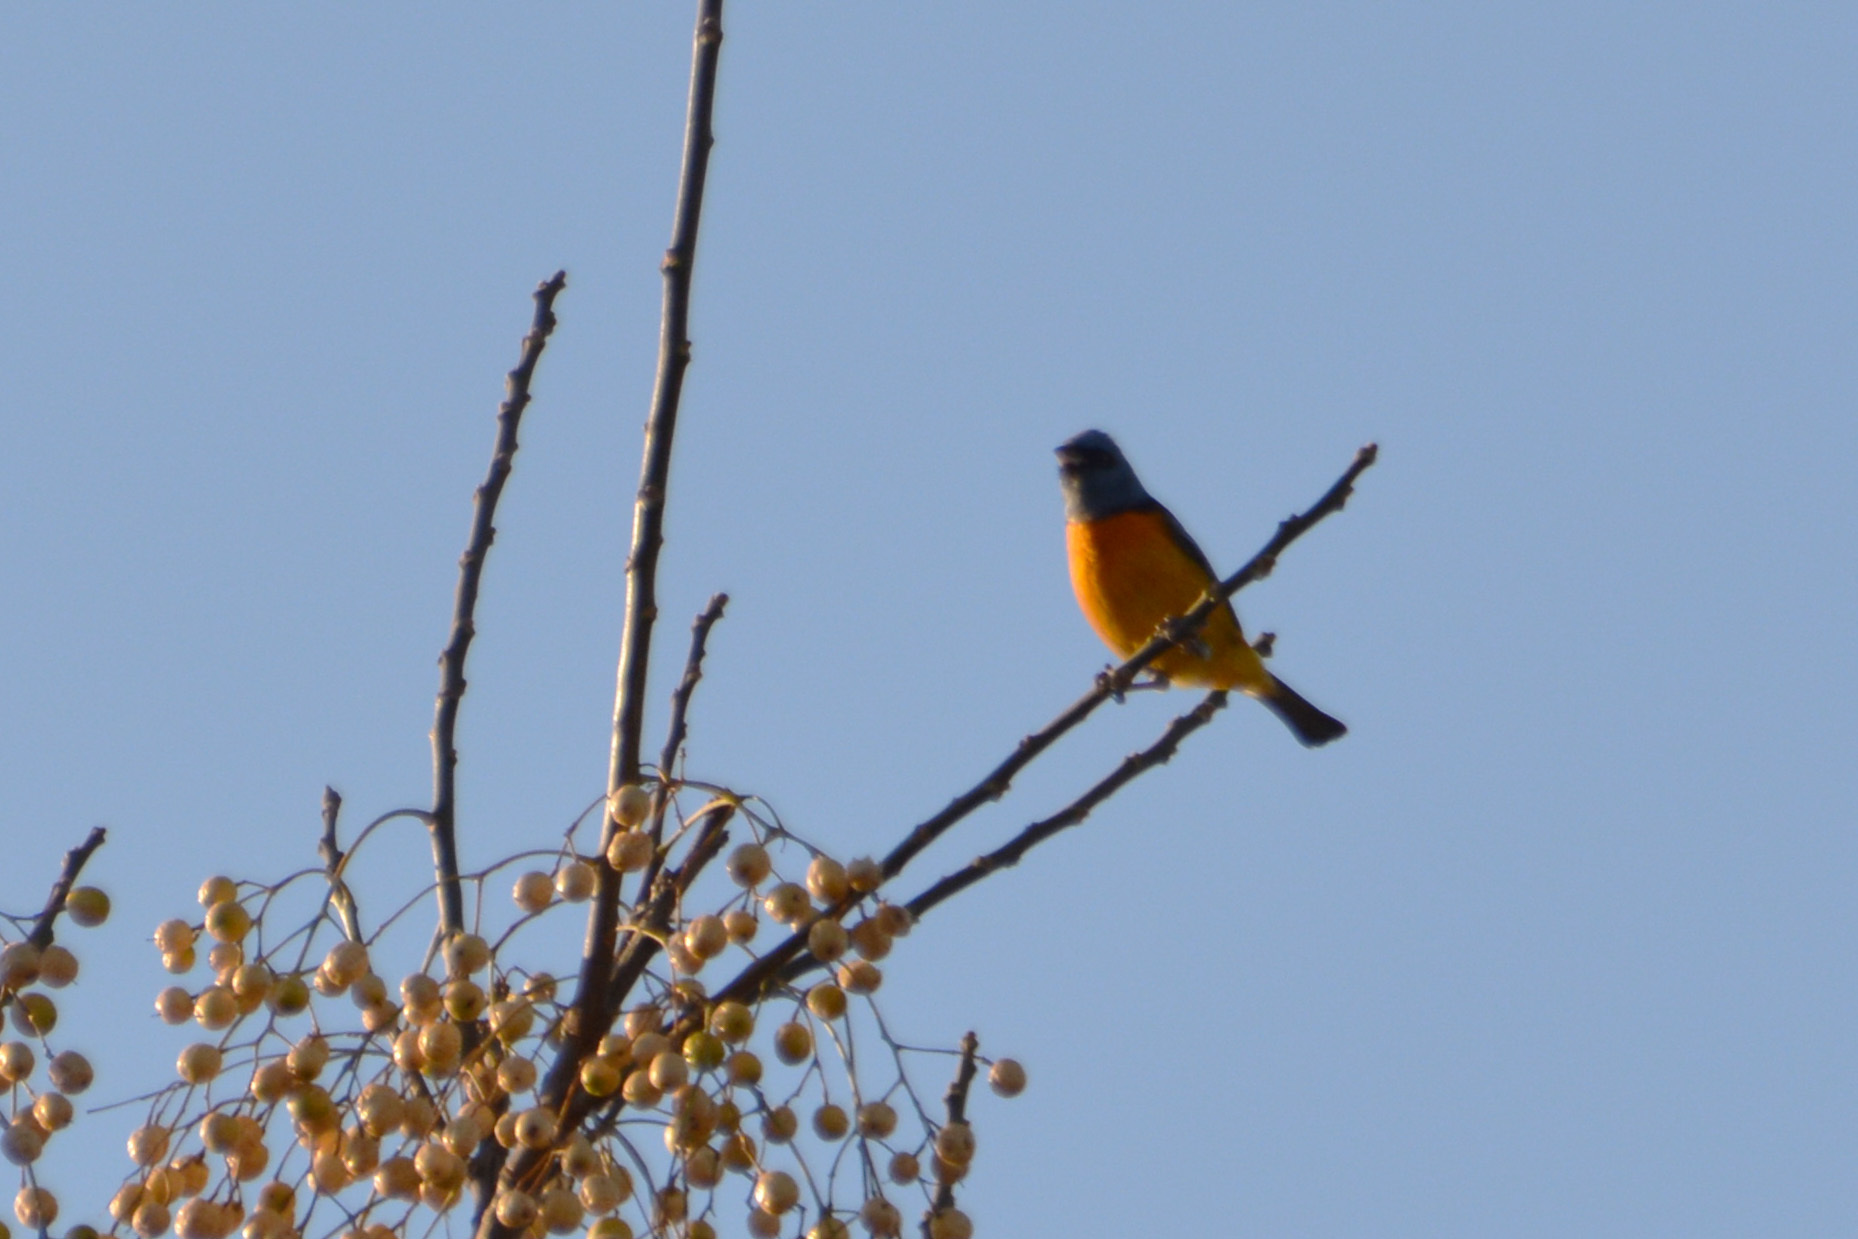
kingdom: Animalia
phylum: Chordata
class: Aves
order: Passeriformes
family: Thraupidae
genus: Rauenia
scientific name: Rauenia bonariensis
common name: Blue-and-yellow tanager
